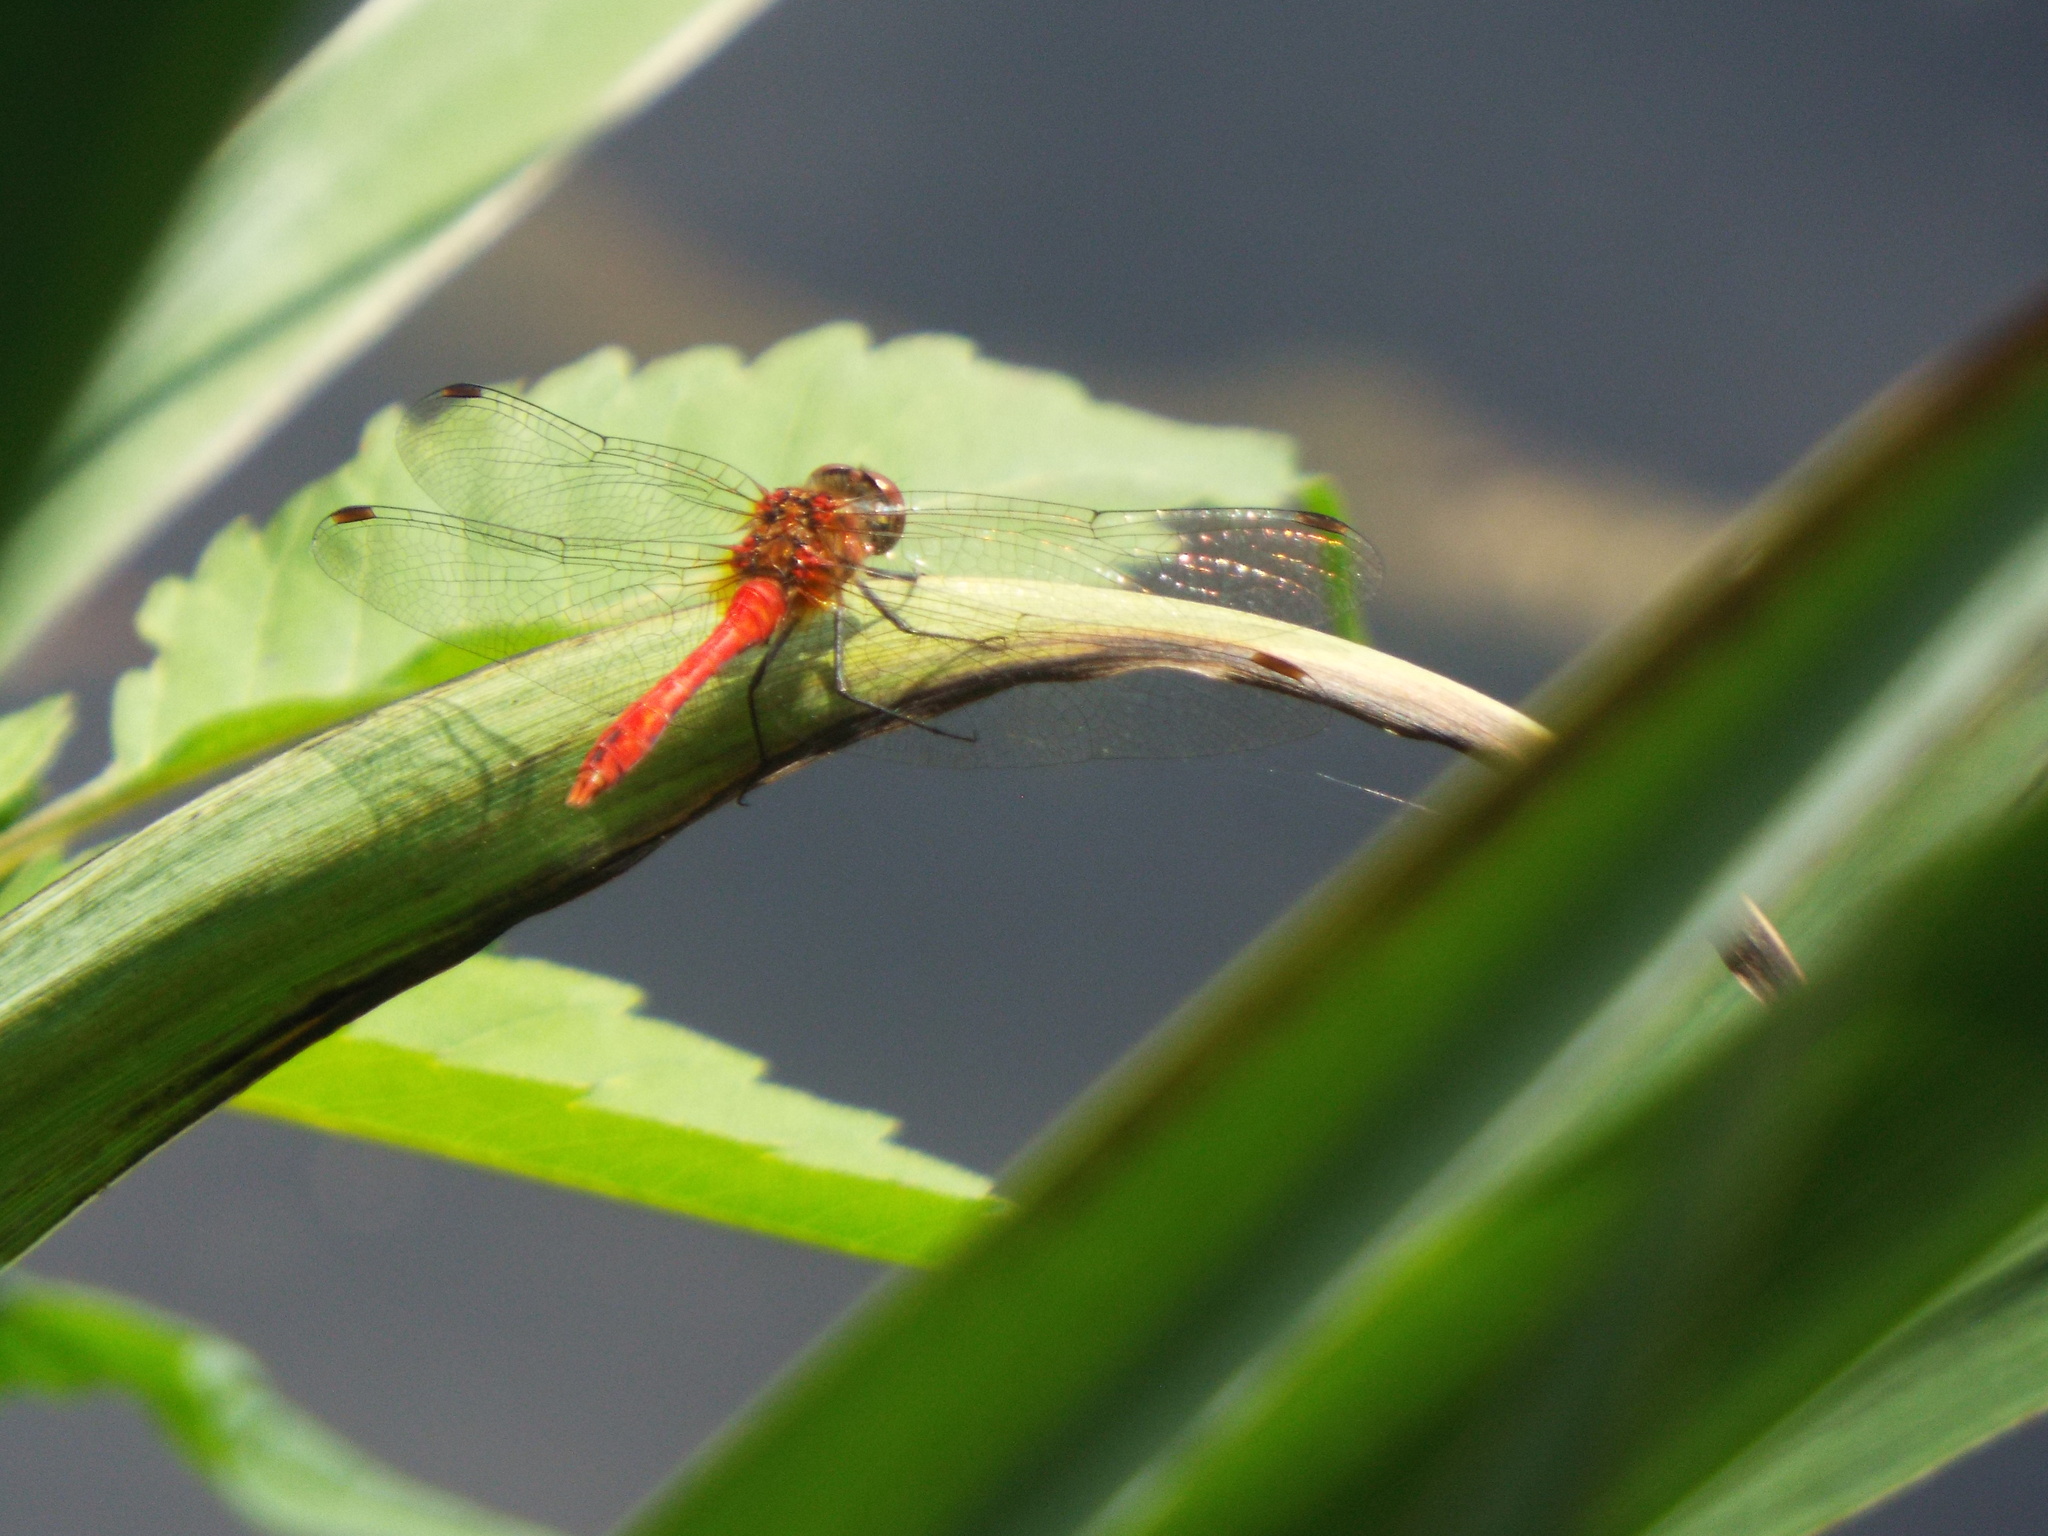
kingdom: Animalia
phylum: Arthropoda
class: Insecta
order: Odonata
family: Libellulidae
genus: Sympetrum
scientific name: Sympetrum sanguineum
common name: Ruddy darter
